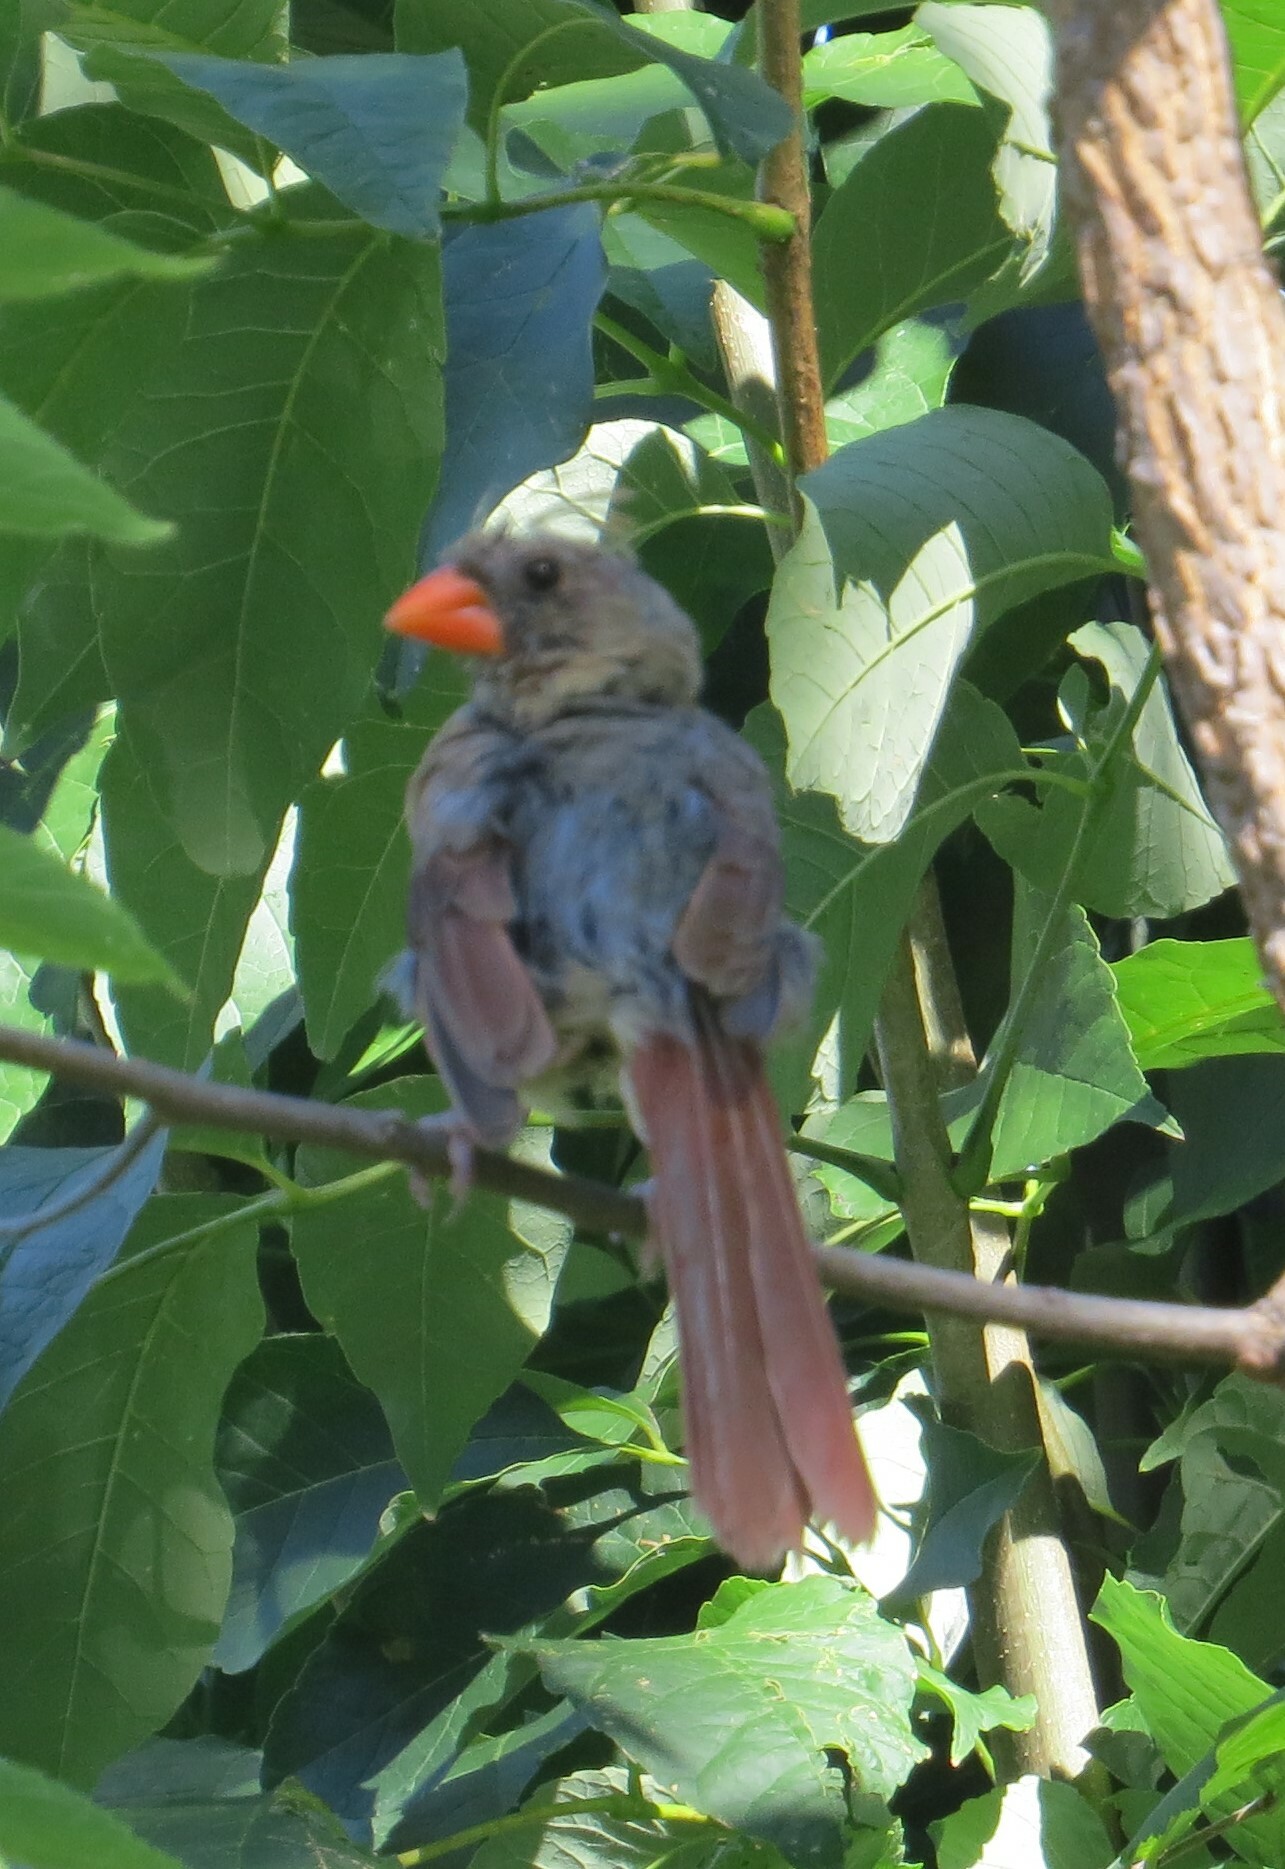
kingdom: Animalia
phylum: Chordata
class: Aves
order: Passeriformes
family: Cardinalidae
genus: Cardinalis
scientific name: Cardinalis cardinalis
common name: Northern cardinal
